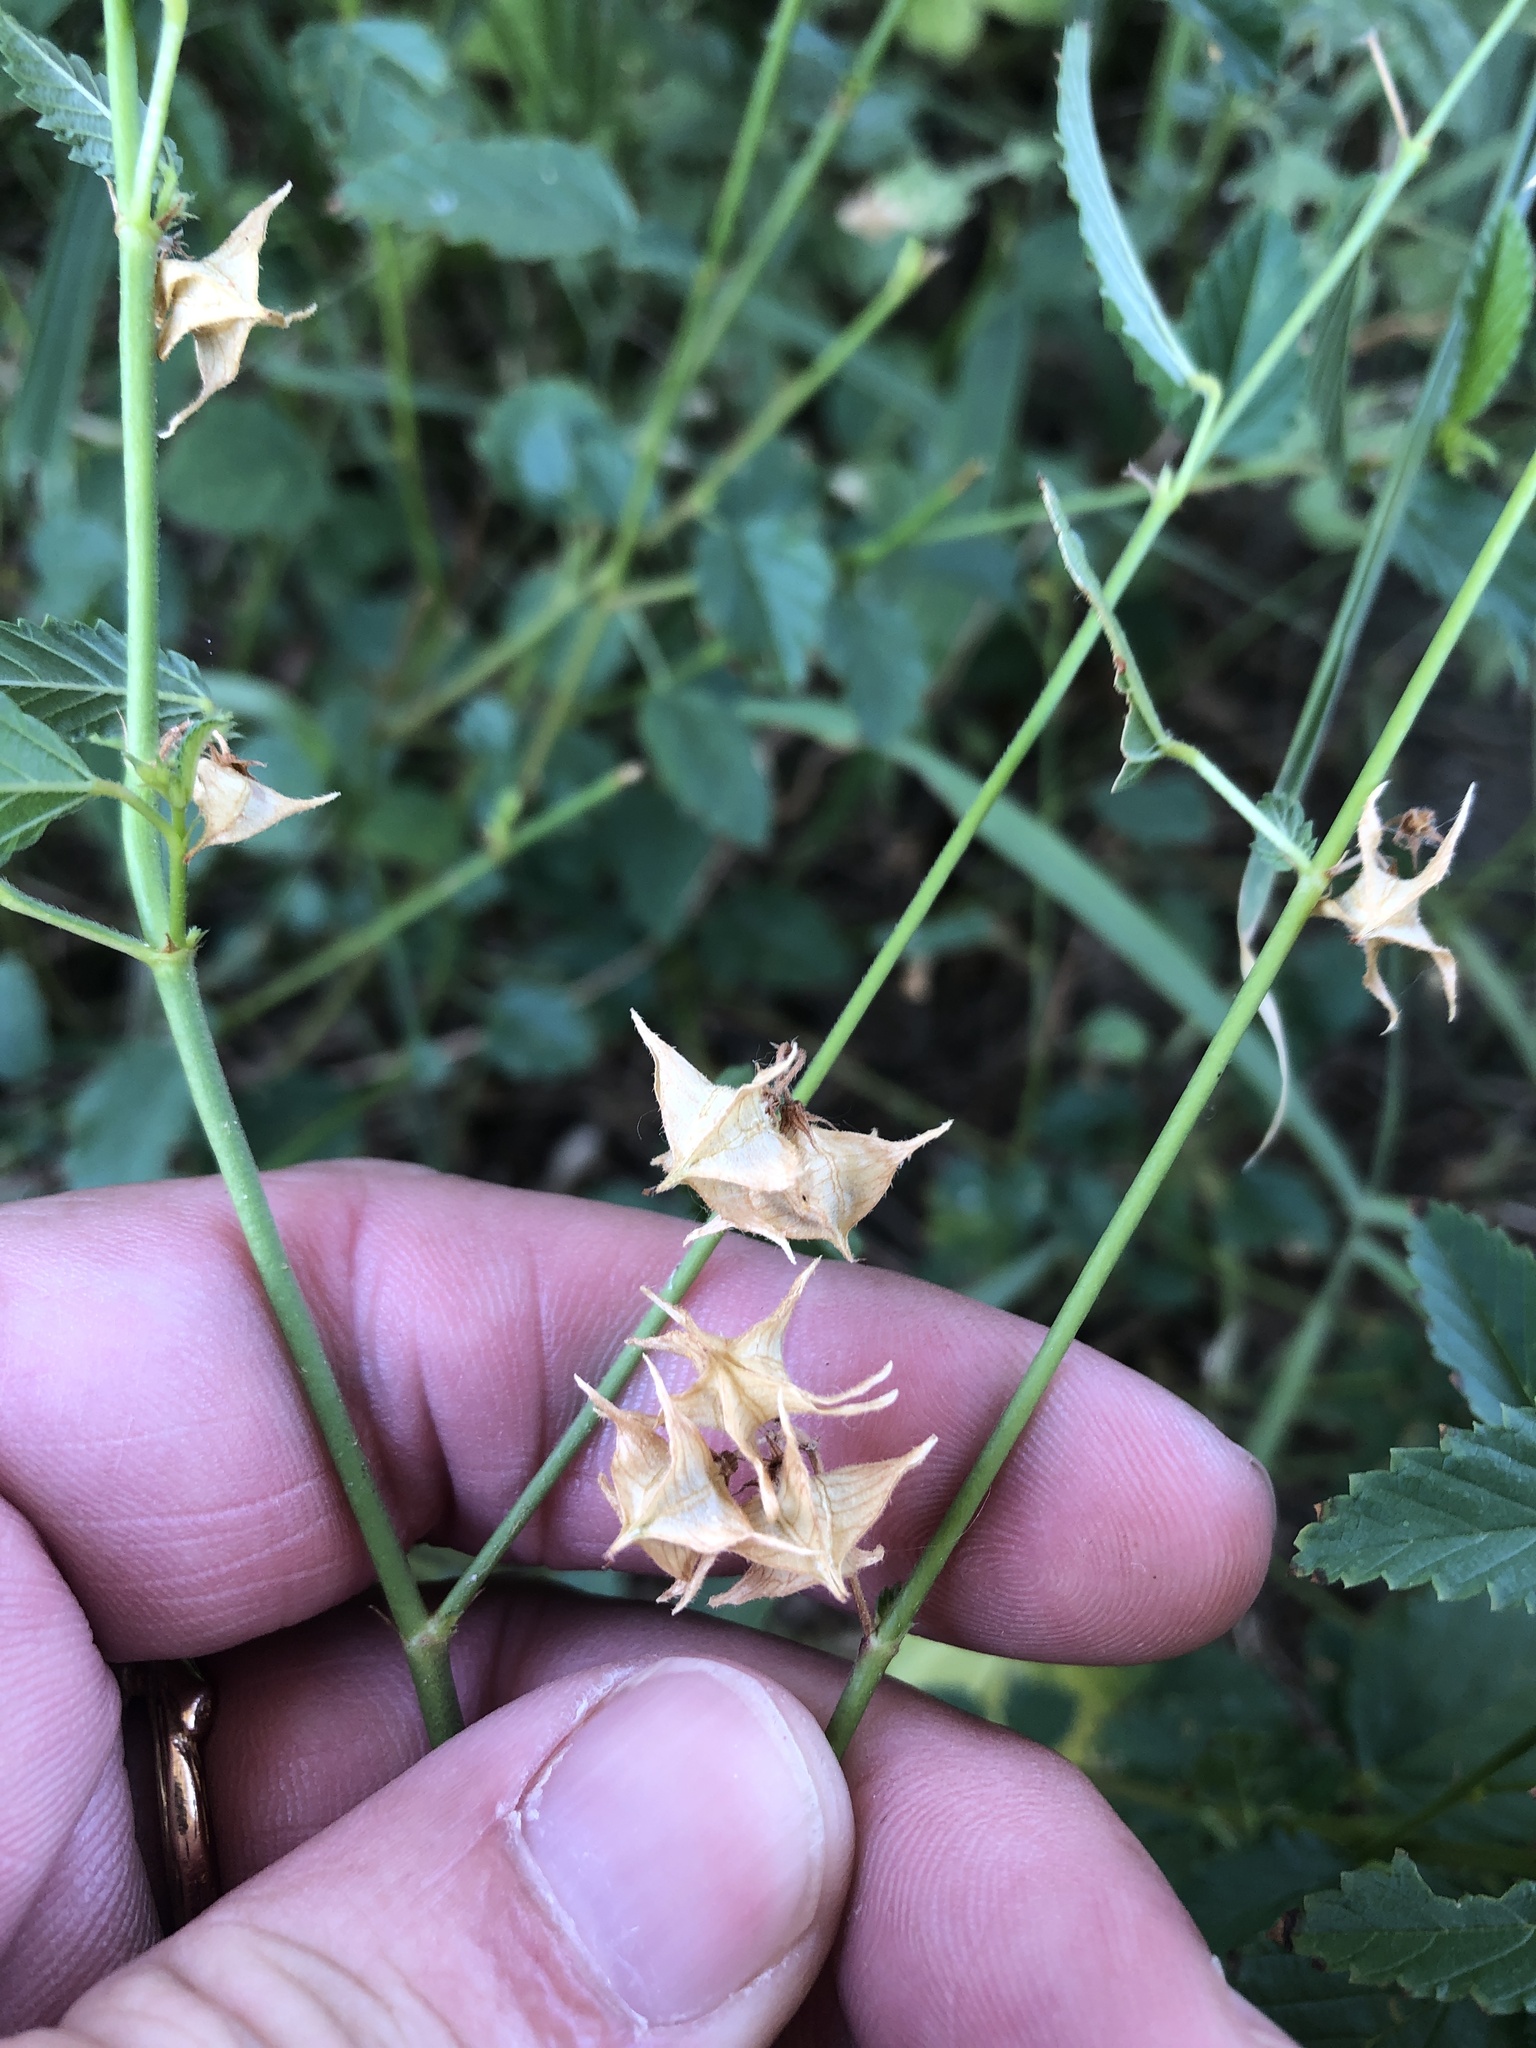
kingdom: Plantae
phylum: Tracheophyta
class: Magnoliopsida
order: Malvales
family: Malvaceae
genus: Melochia
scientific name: Melochia pyramidata
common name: Pyramidflower
